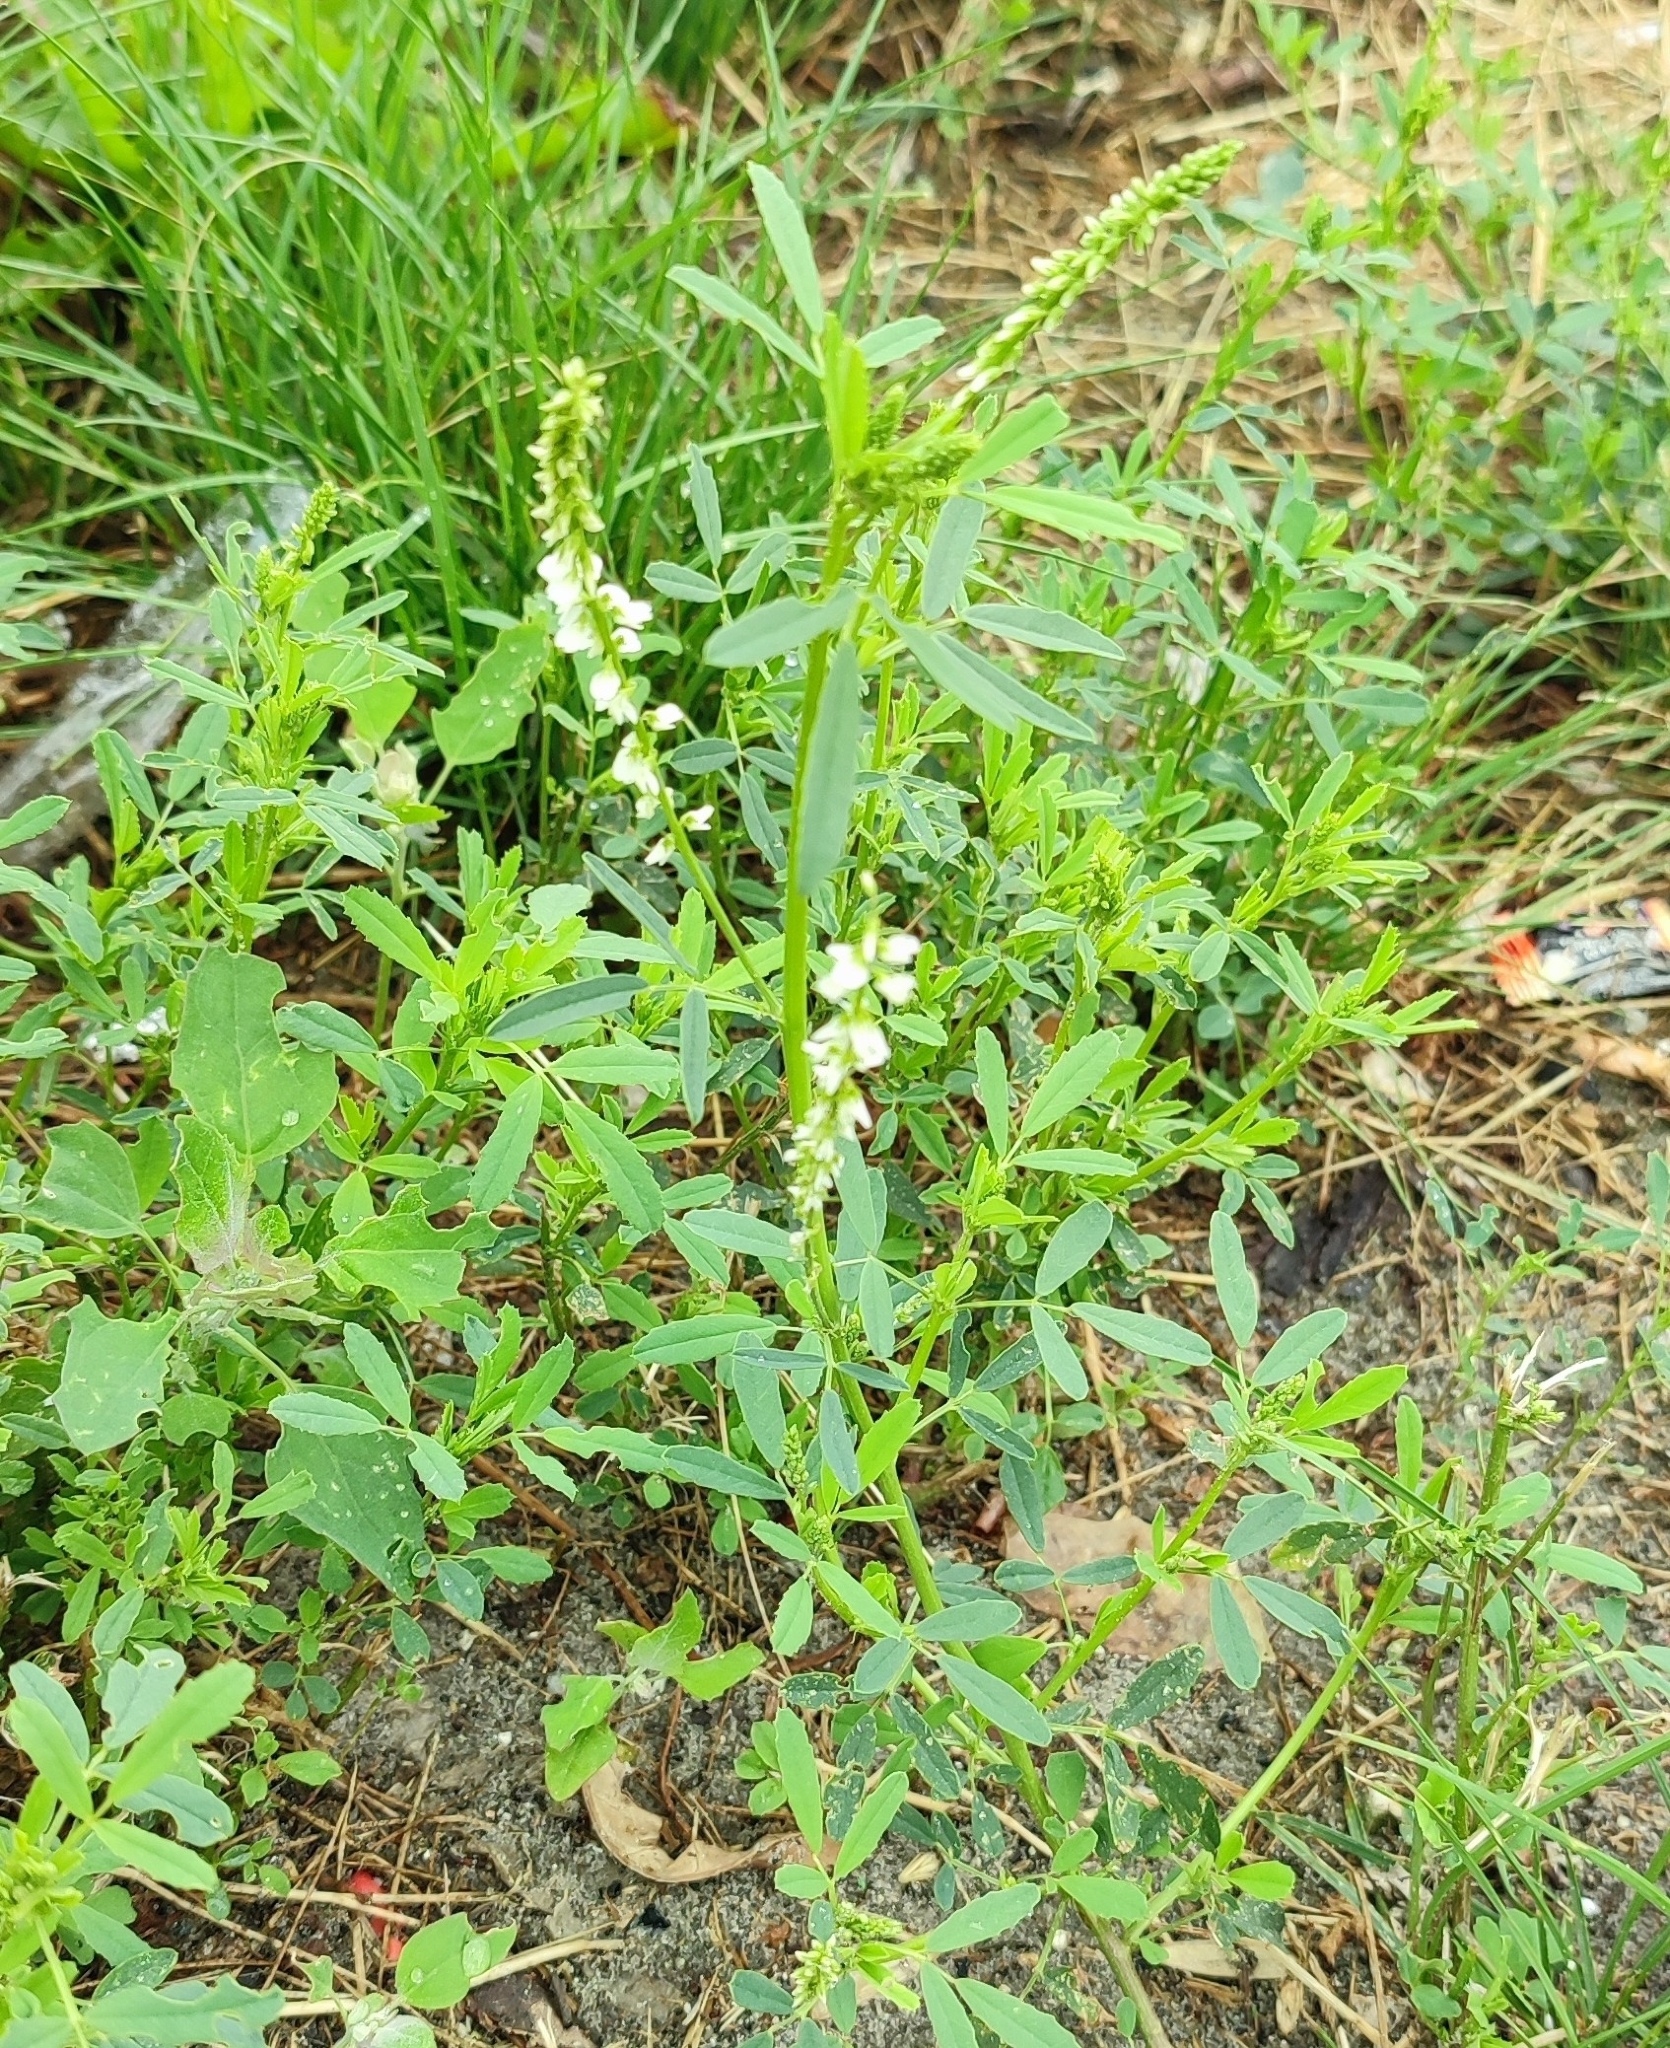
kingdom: Plantae
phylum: Tracheophyta
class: Magnoliopsida
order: Fabales
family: Fabaceae
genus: Melilotus
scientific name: Melilotus albus
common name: White melilot
